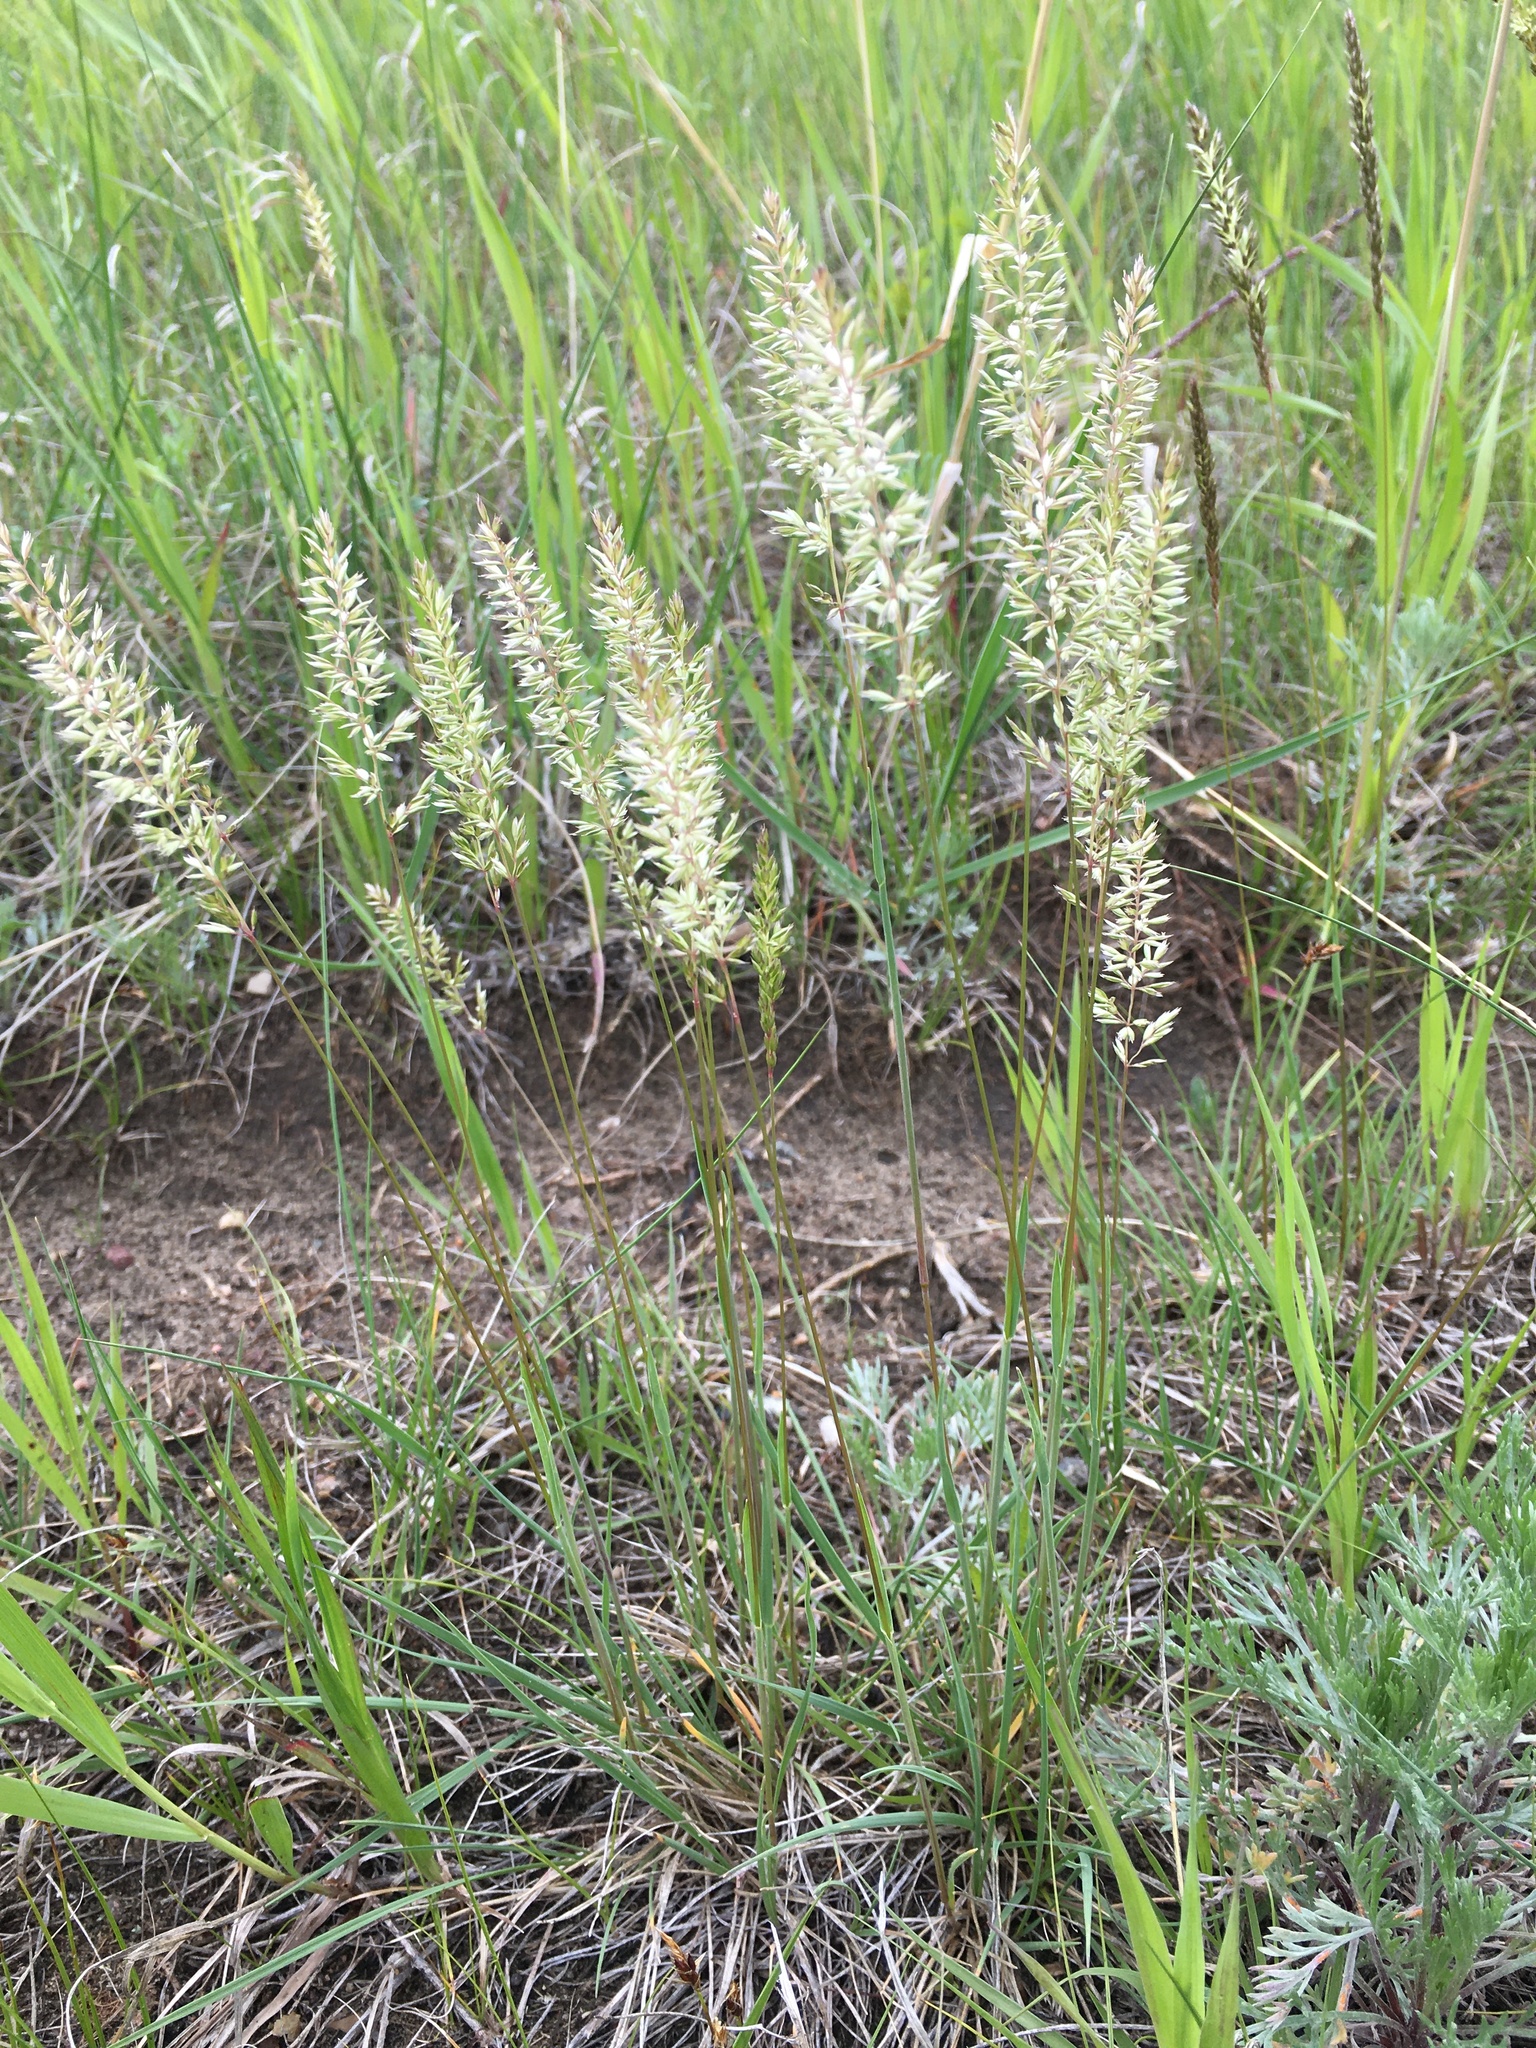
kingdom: Plantae
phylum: Tracheophyta
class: Liliopsida
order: Poales
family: Poaceae
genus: Koeleria
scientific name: Koeleria macrantha
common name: Crested hair-grass
